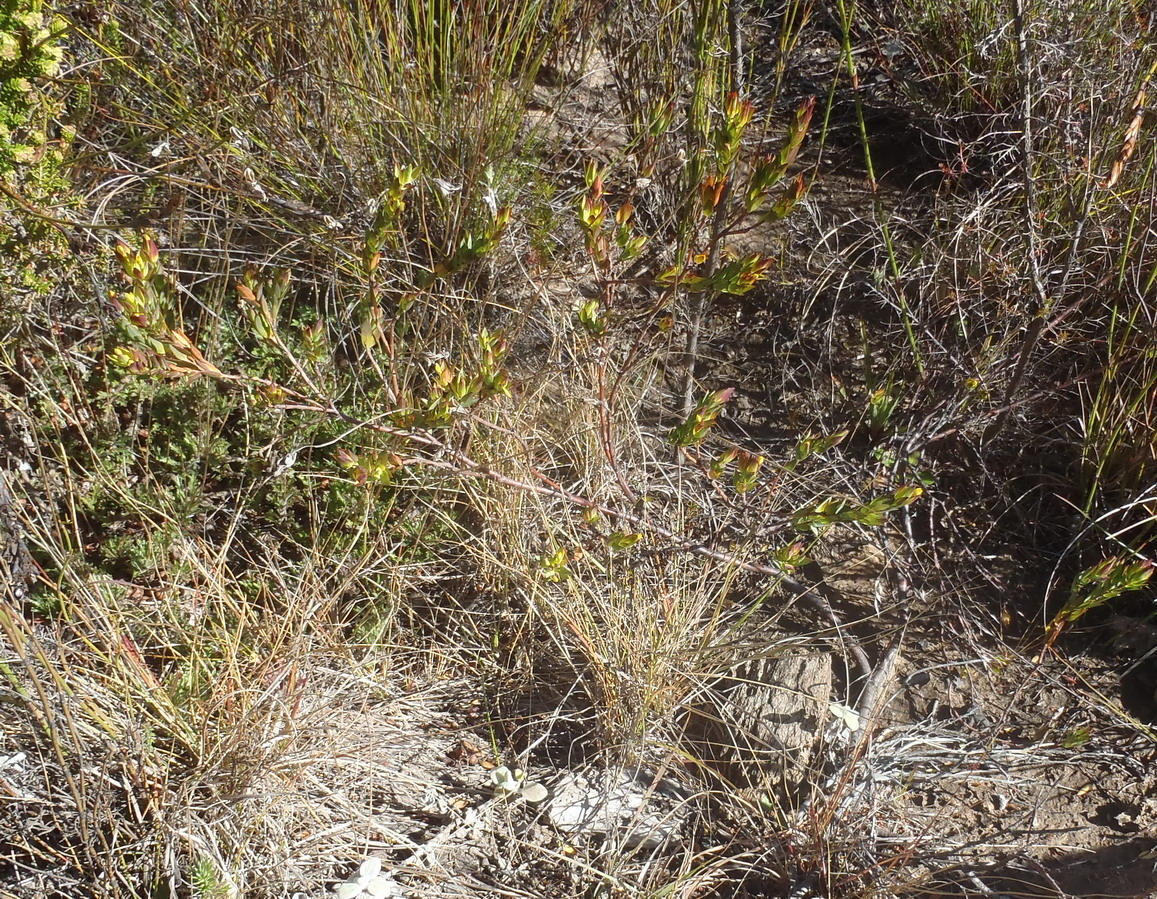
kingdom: Plantae
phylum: Tracheophyta
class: Magnoliopsida
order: Malvales
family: Thymelaeaceae
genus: Gnidia
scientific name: Gnidia juniperifolia
